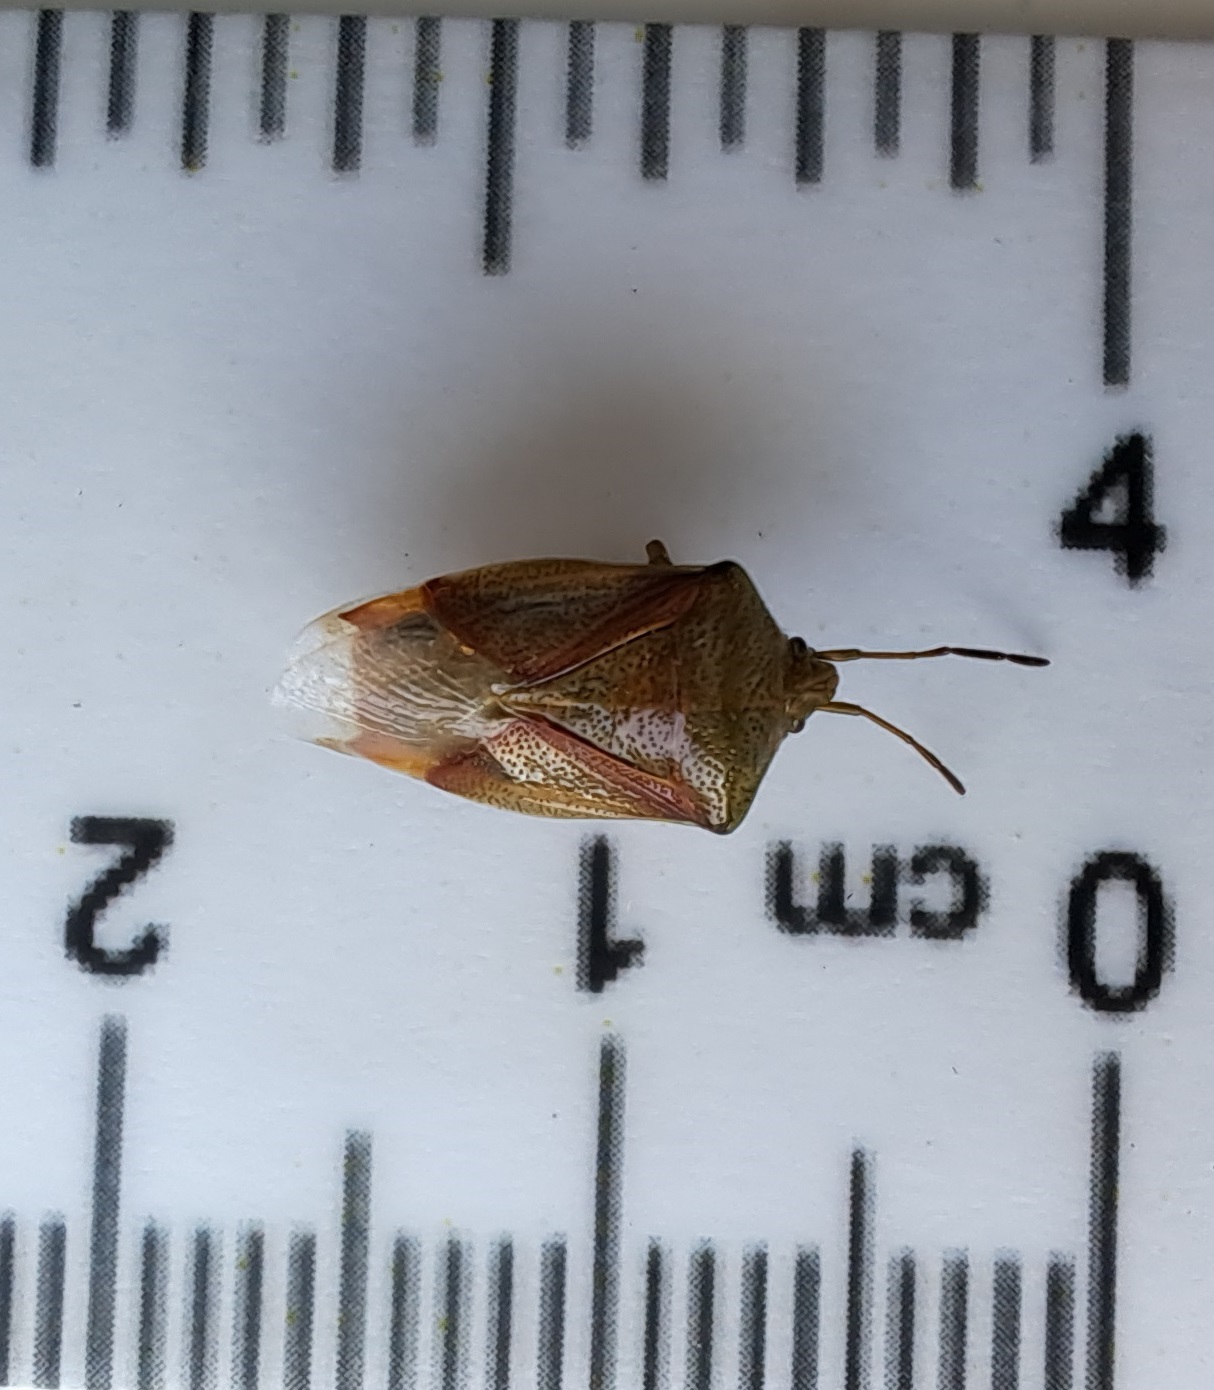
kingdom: Animalia
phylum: Arthropoda
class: Insecta
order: Hemiptera
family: Acanthosomatidae
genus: Elasmostethus
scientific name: Elasmostethus interstinctus
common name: Birch shieldbug
